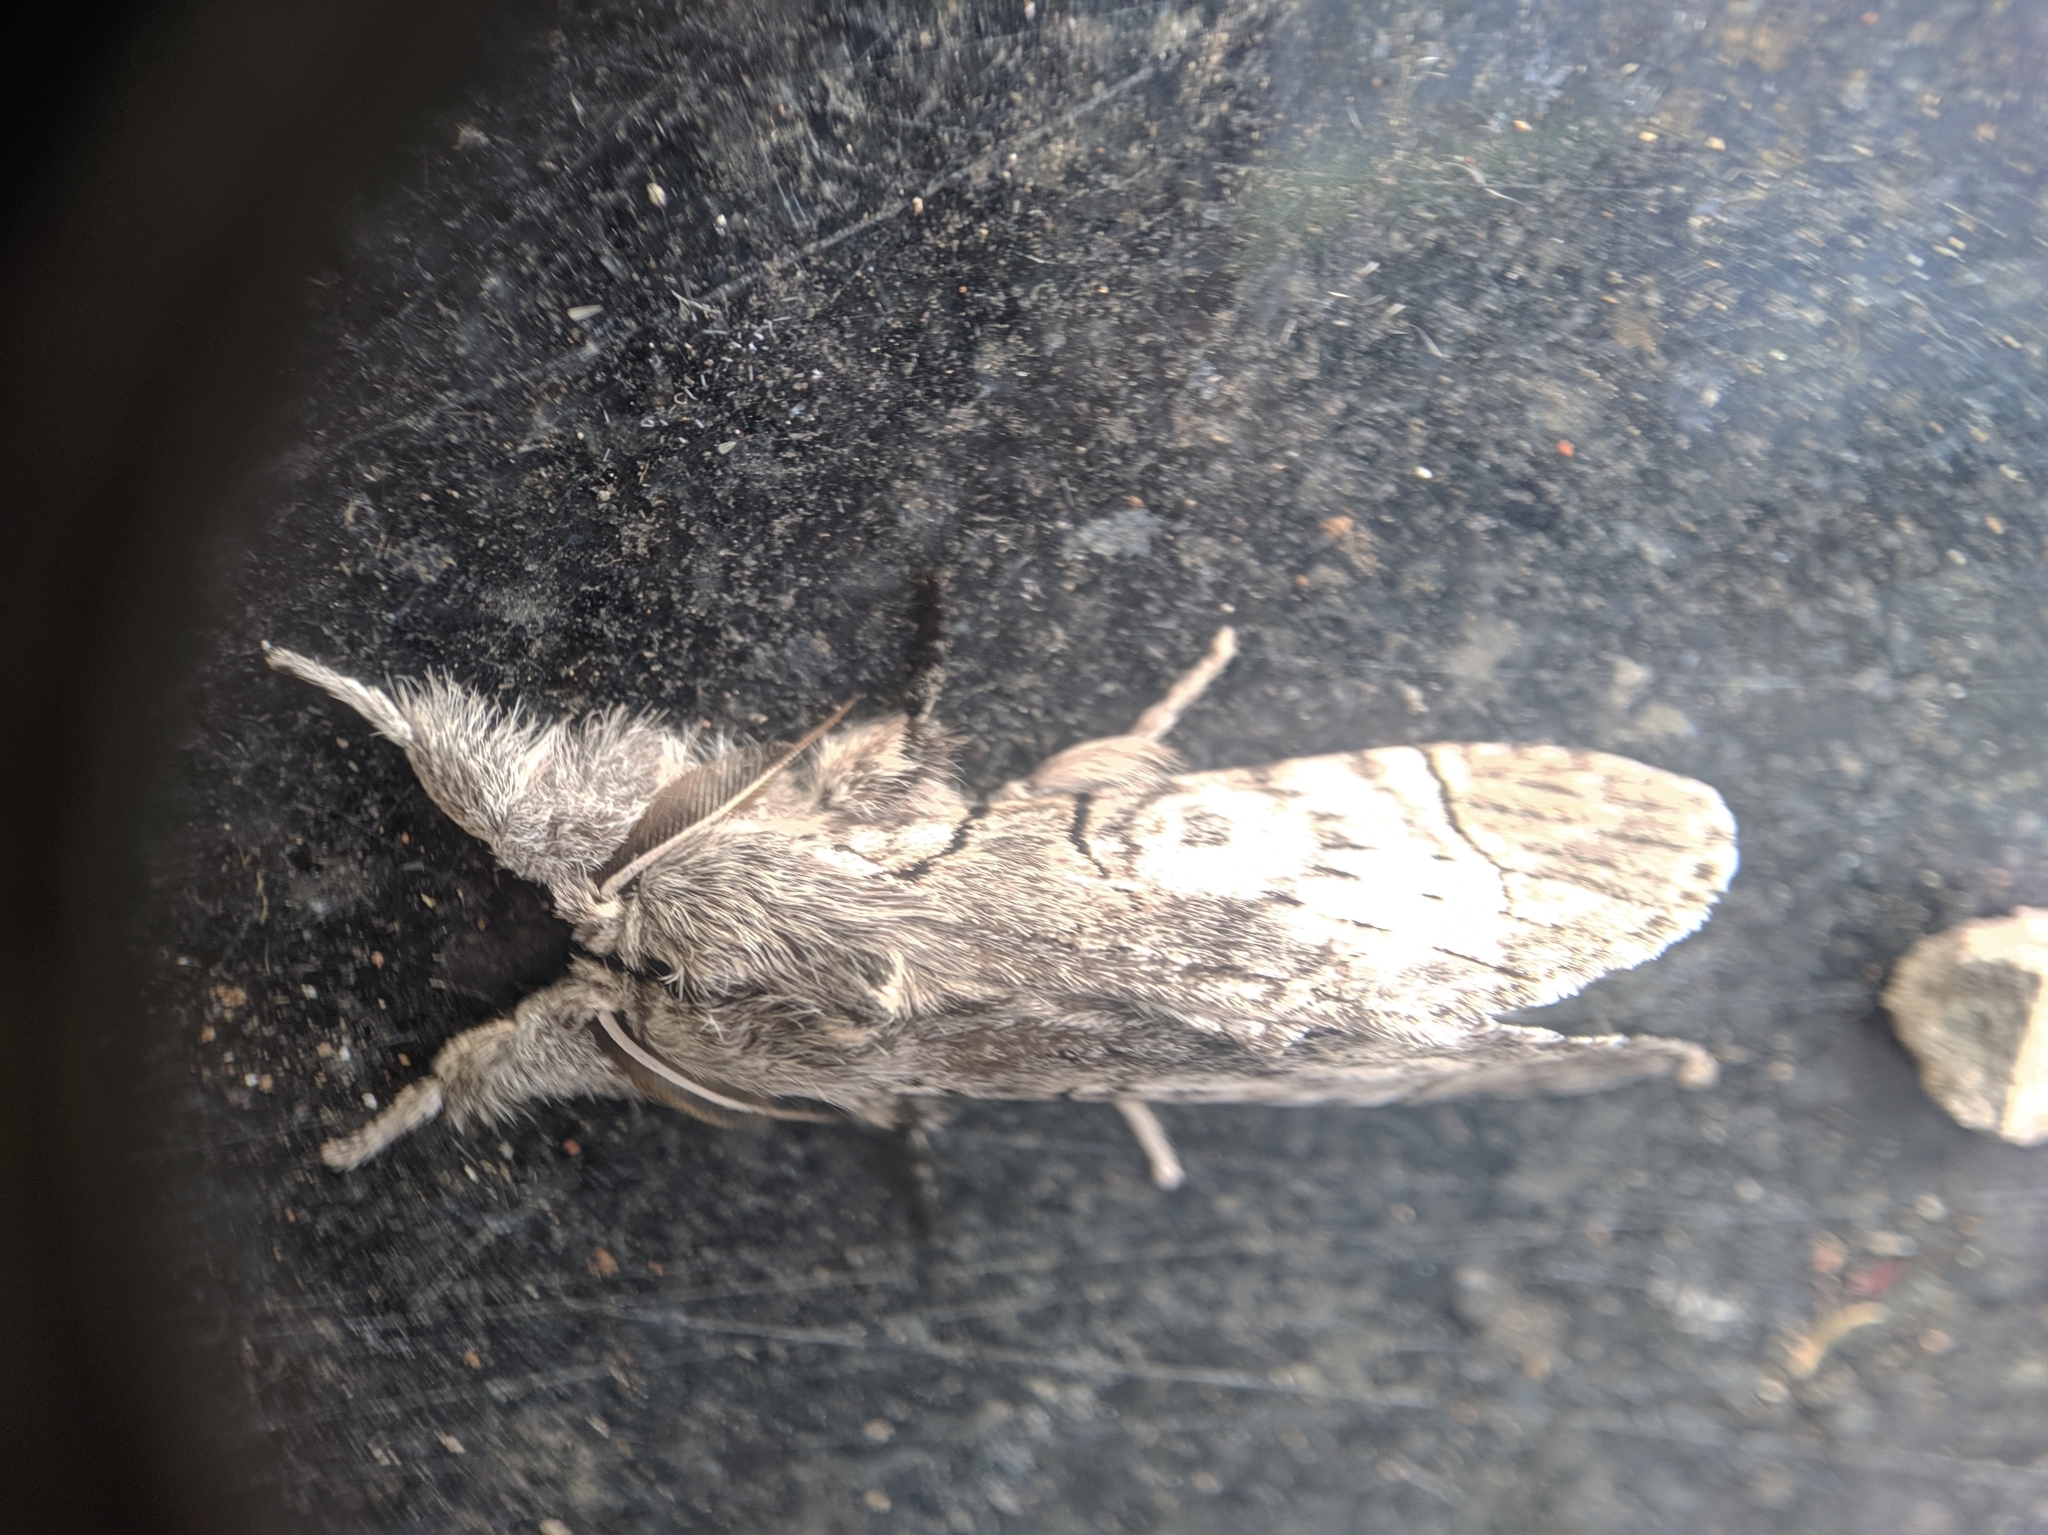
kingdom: Animalia
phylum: Arthropoda
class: Insecta
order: Lepidoptera
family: Erebidae
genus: Calliteara
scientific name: Calliteara grotei
